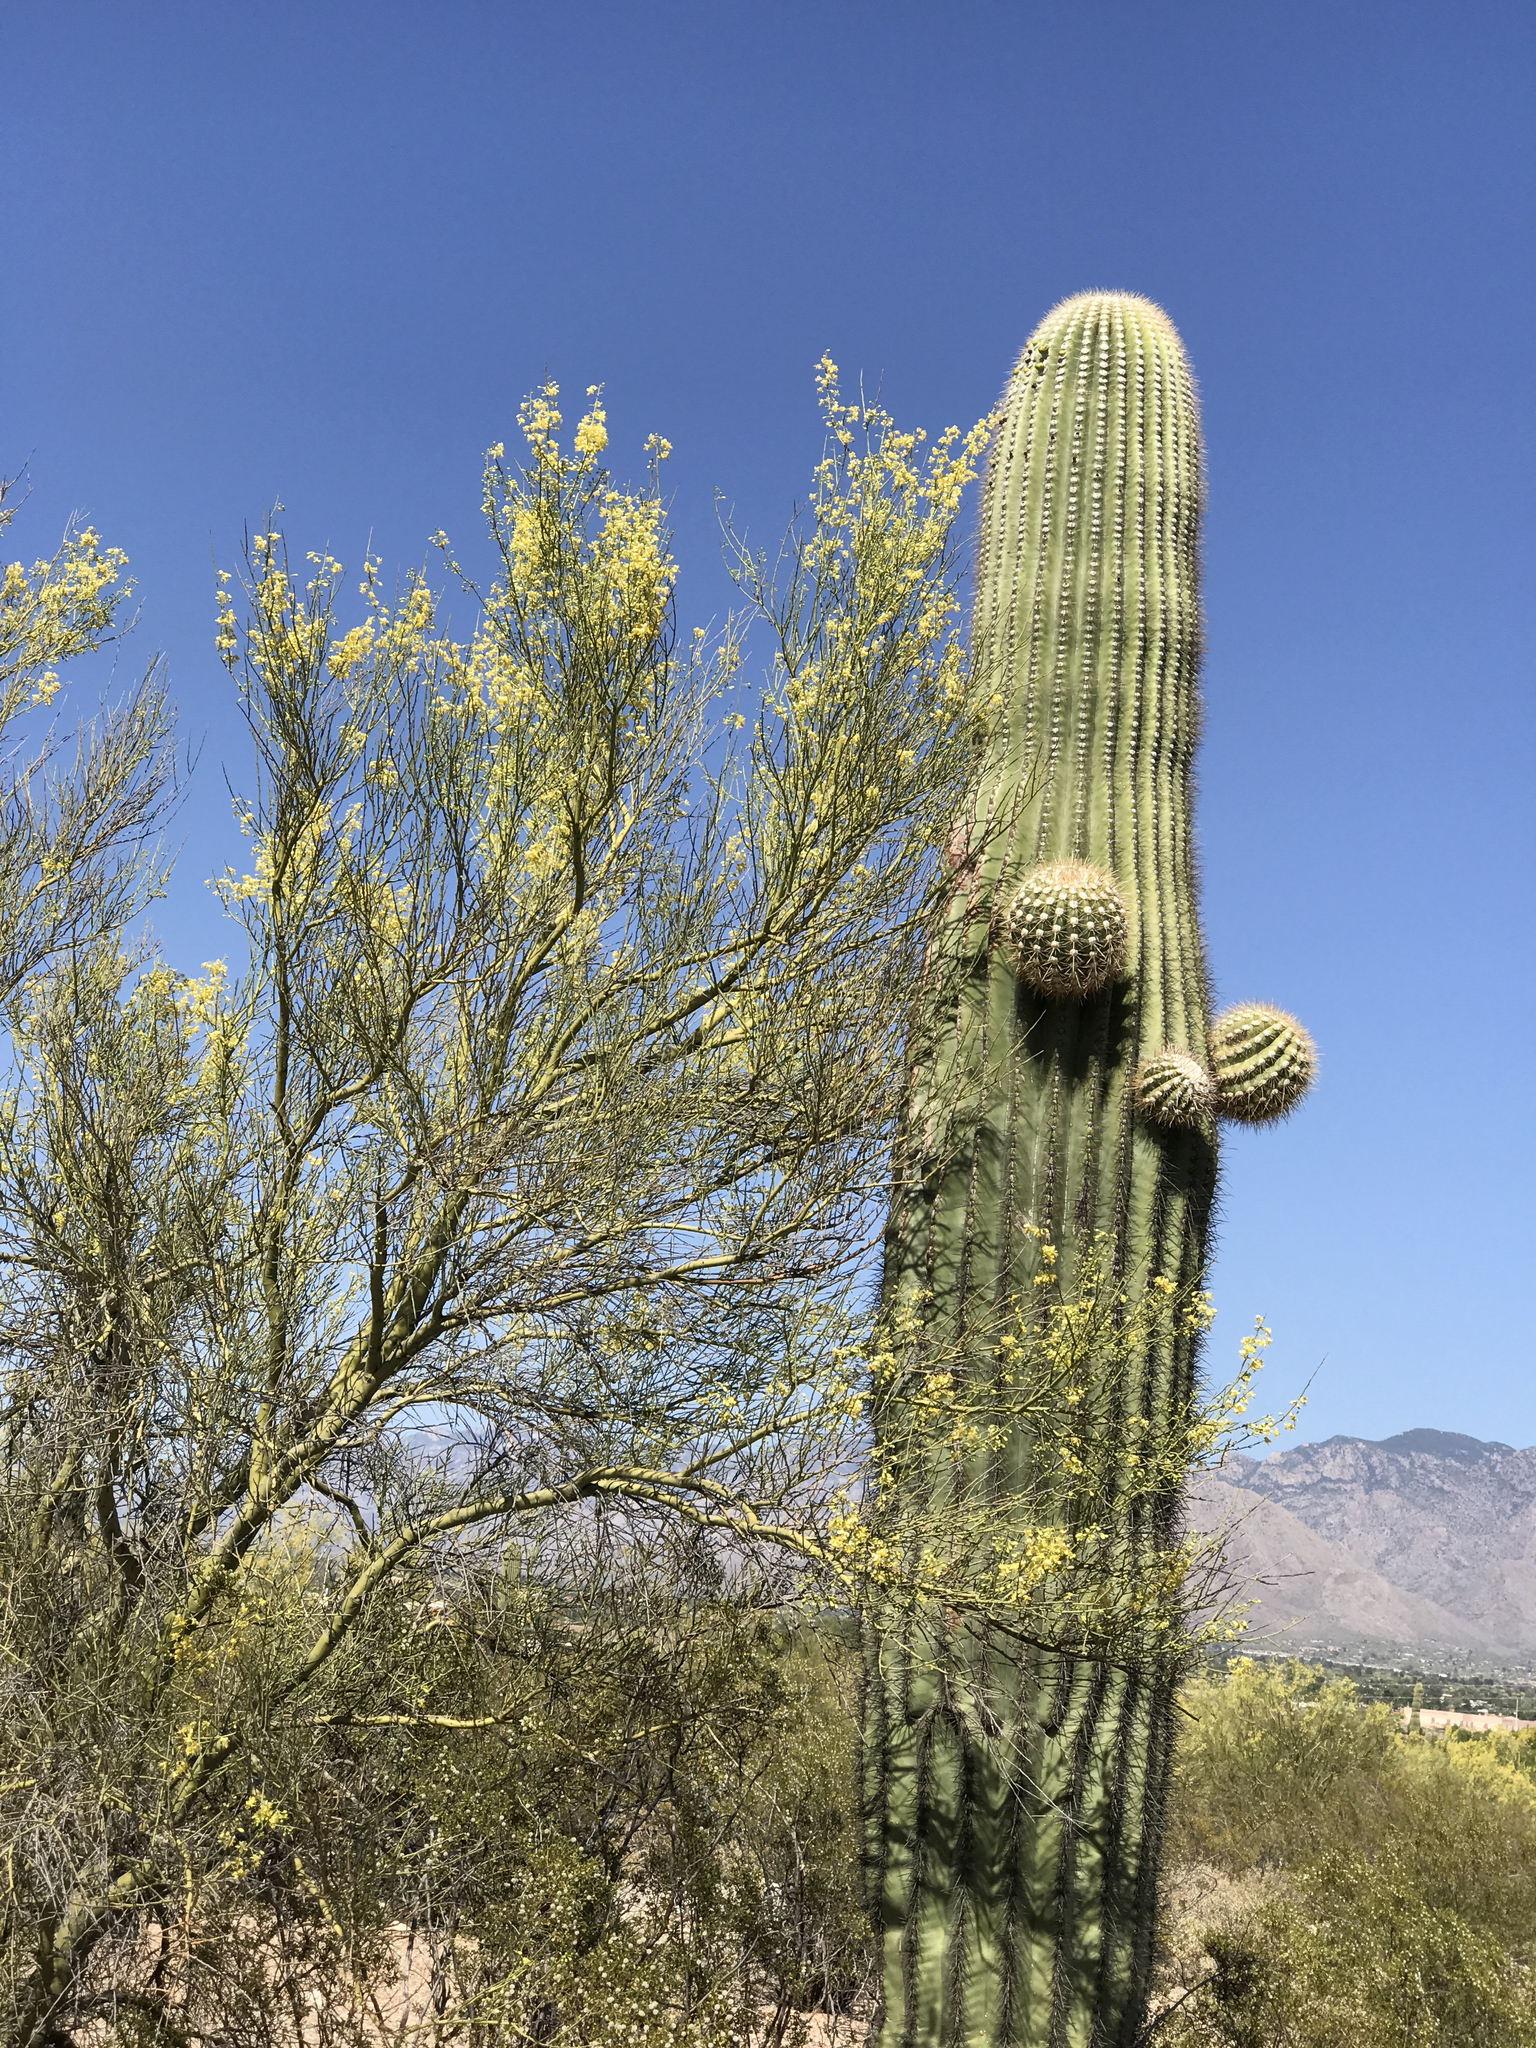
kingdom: Plantae
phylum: Tracheophyta
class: Magnoliopsida
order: Fabales
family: Fabaceae
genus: Parkinsonia
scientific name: Parkinsonia florida
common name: Blue paloverde
